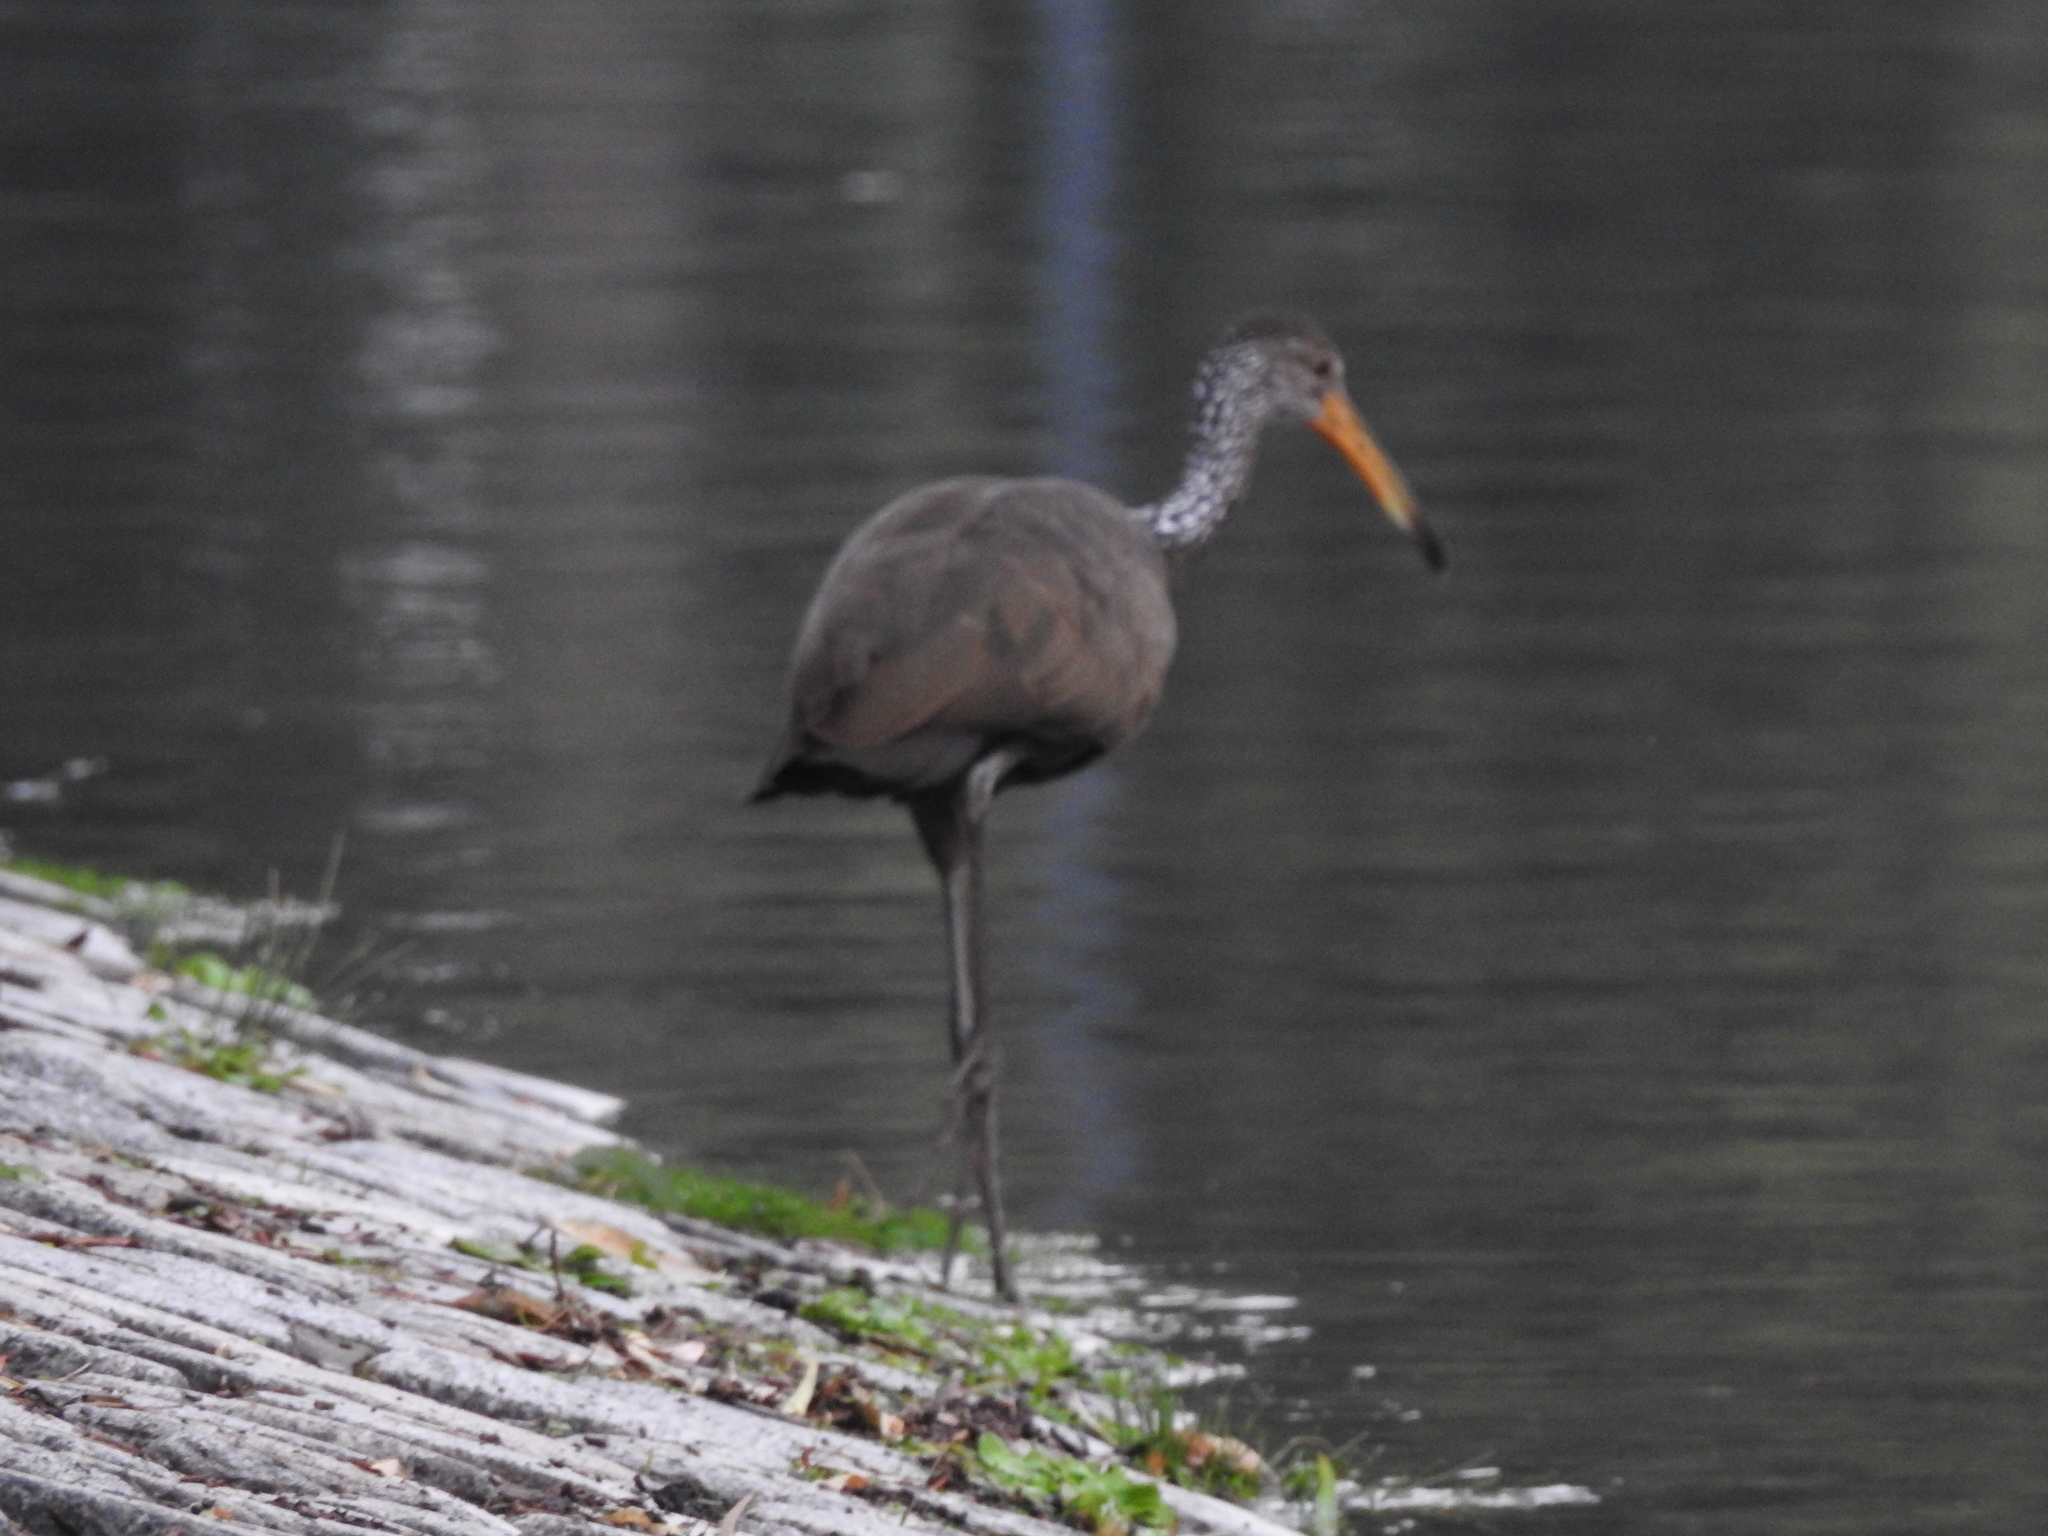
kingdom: Animalia
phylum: Chordata
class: Aves
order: Gruiformes
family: Aramidae
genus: Aramus
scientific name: Aramus guarauna
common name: Limpkin
